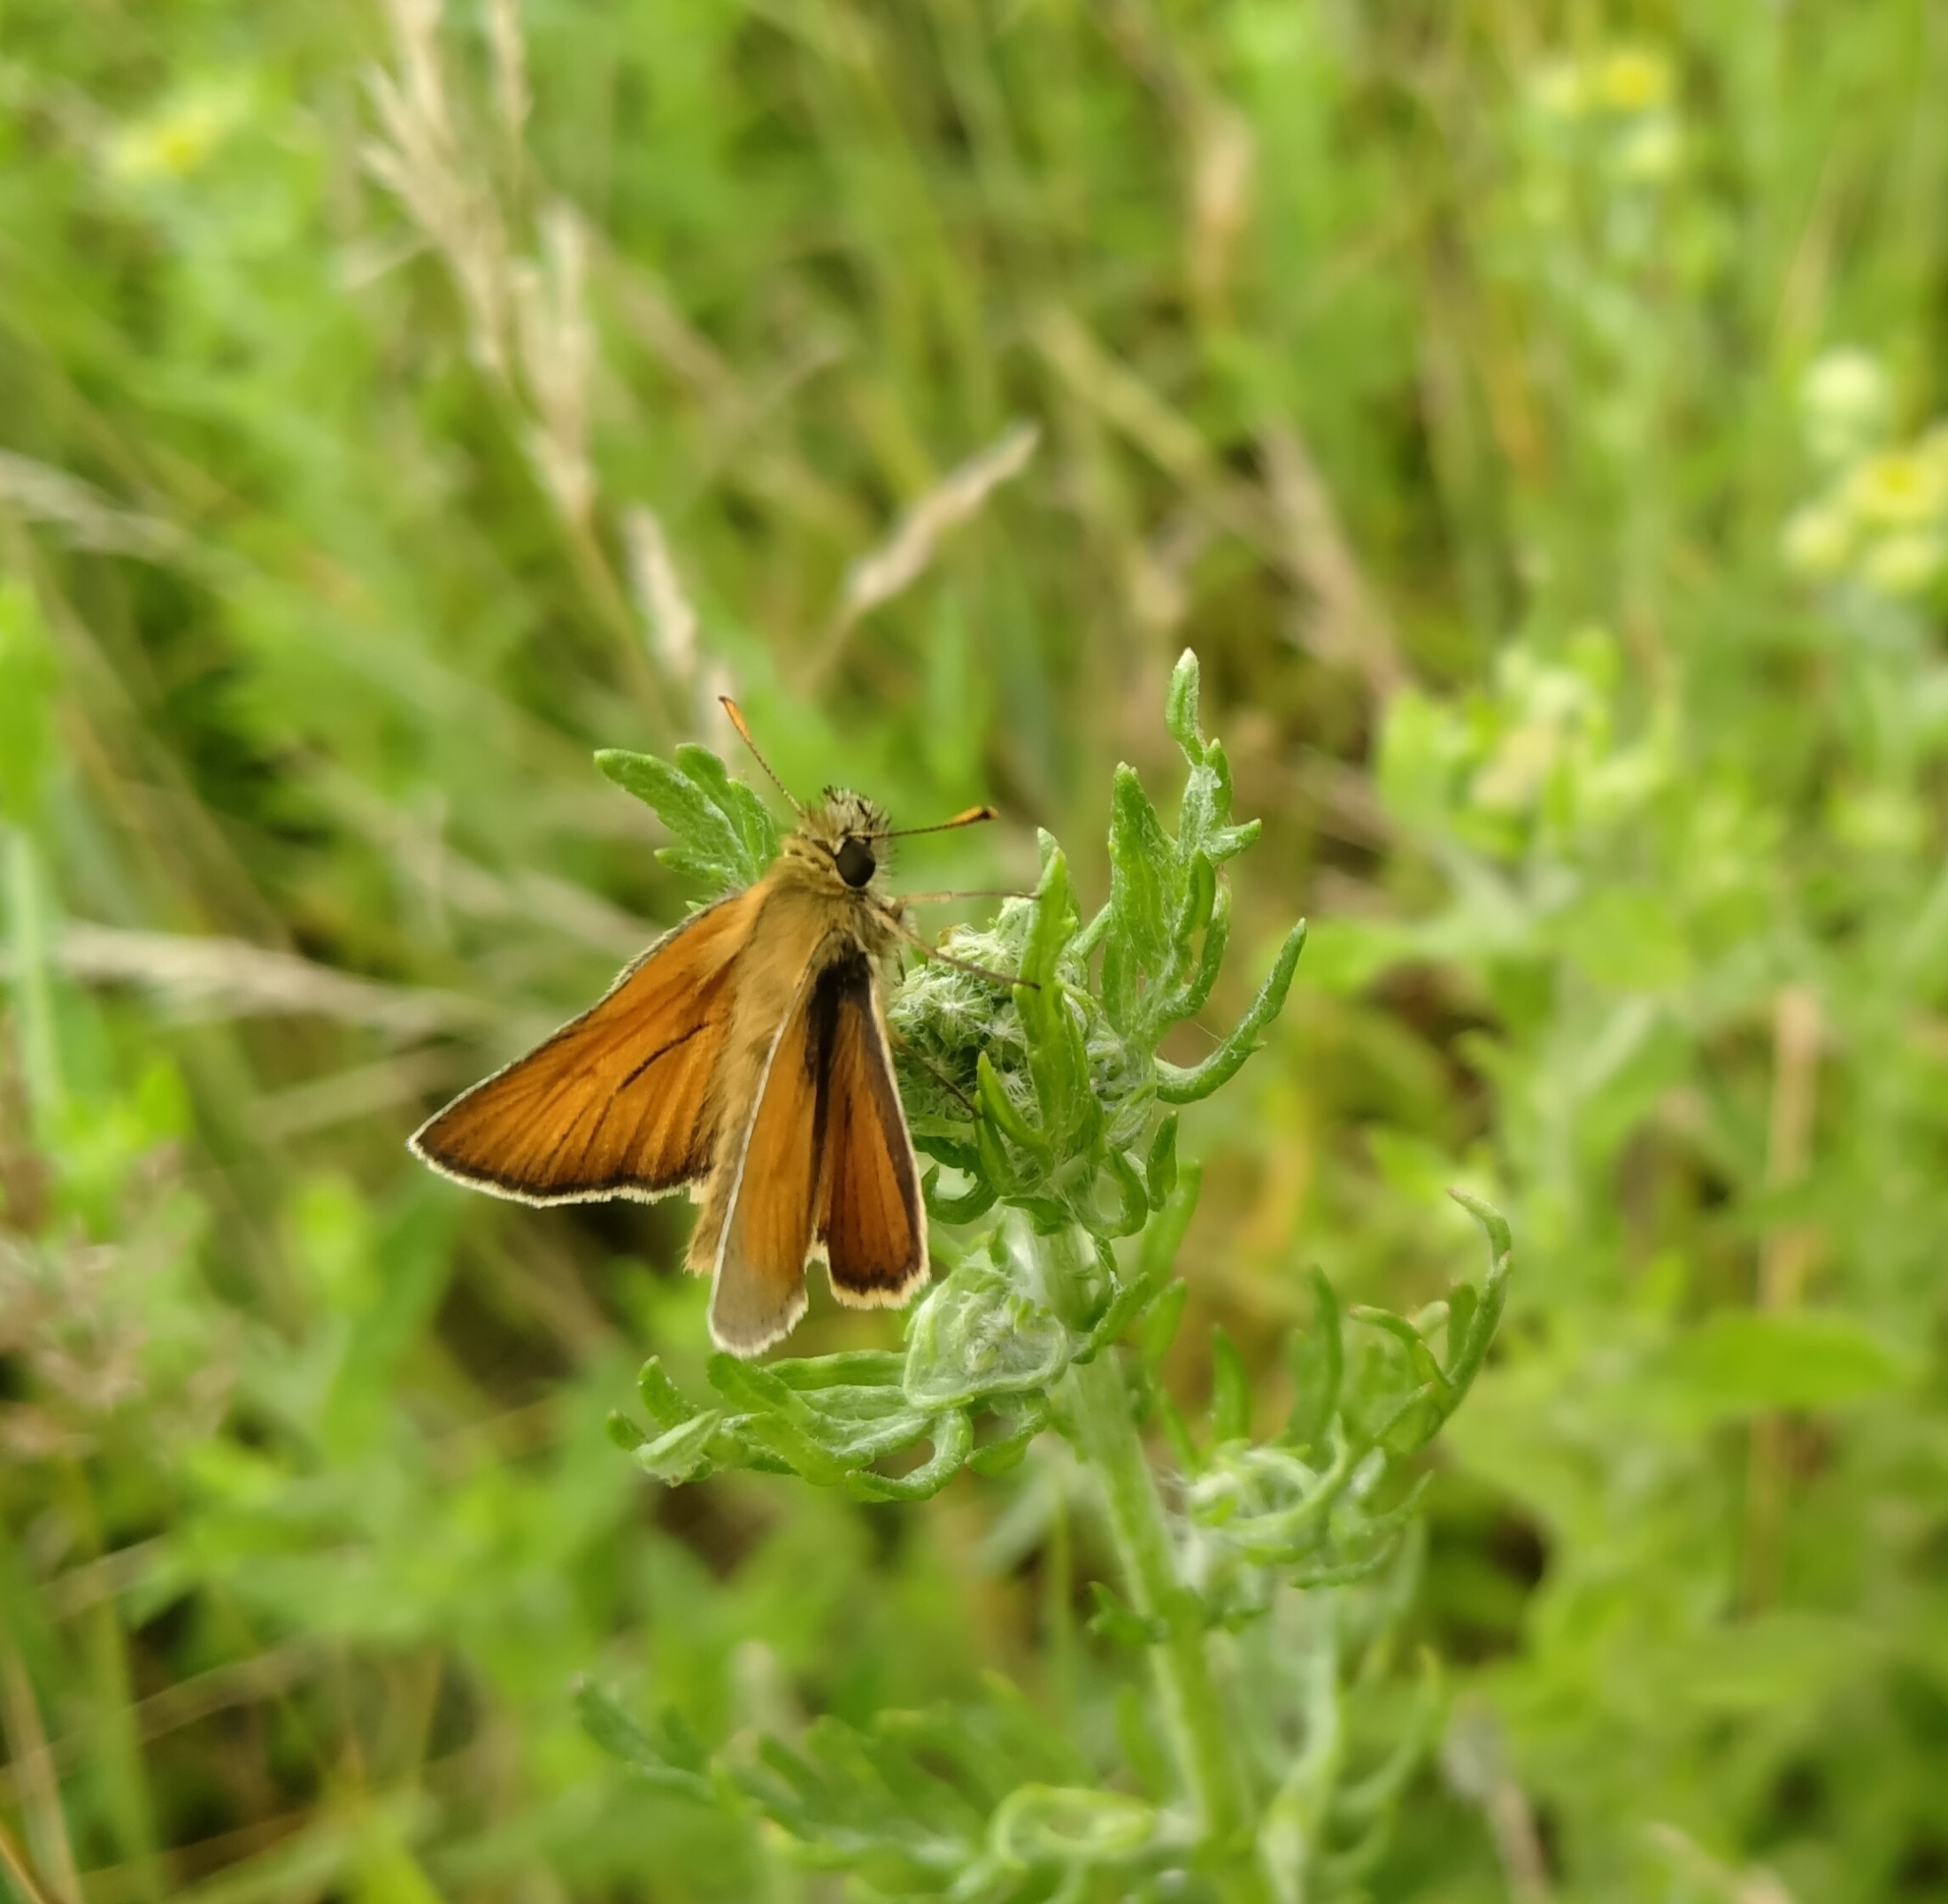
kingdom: Animalia
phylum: Arthropoda
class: Insecta
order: Lepidoptera
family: Hesperiidae
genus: Thymelicus
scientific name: Thymelicus sylvestris
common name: Small skipper
